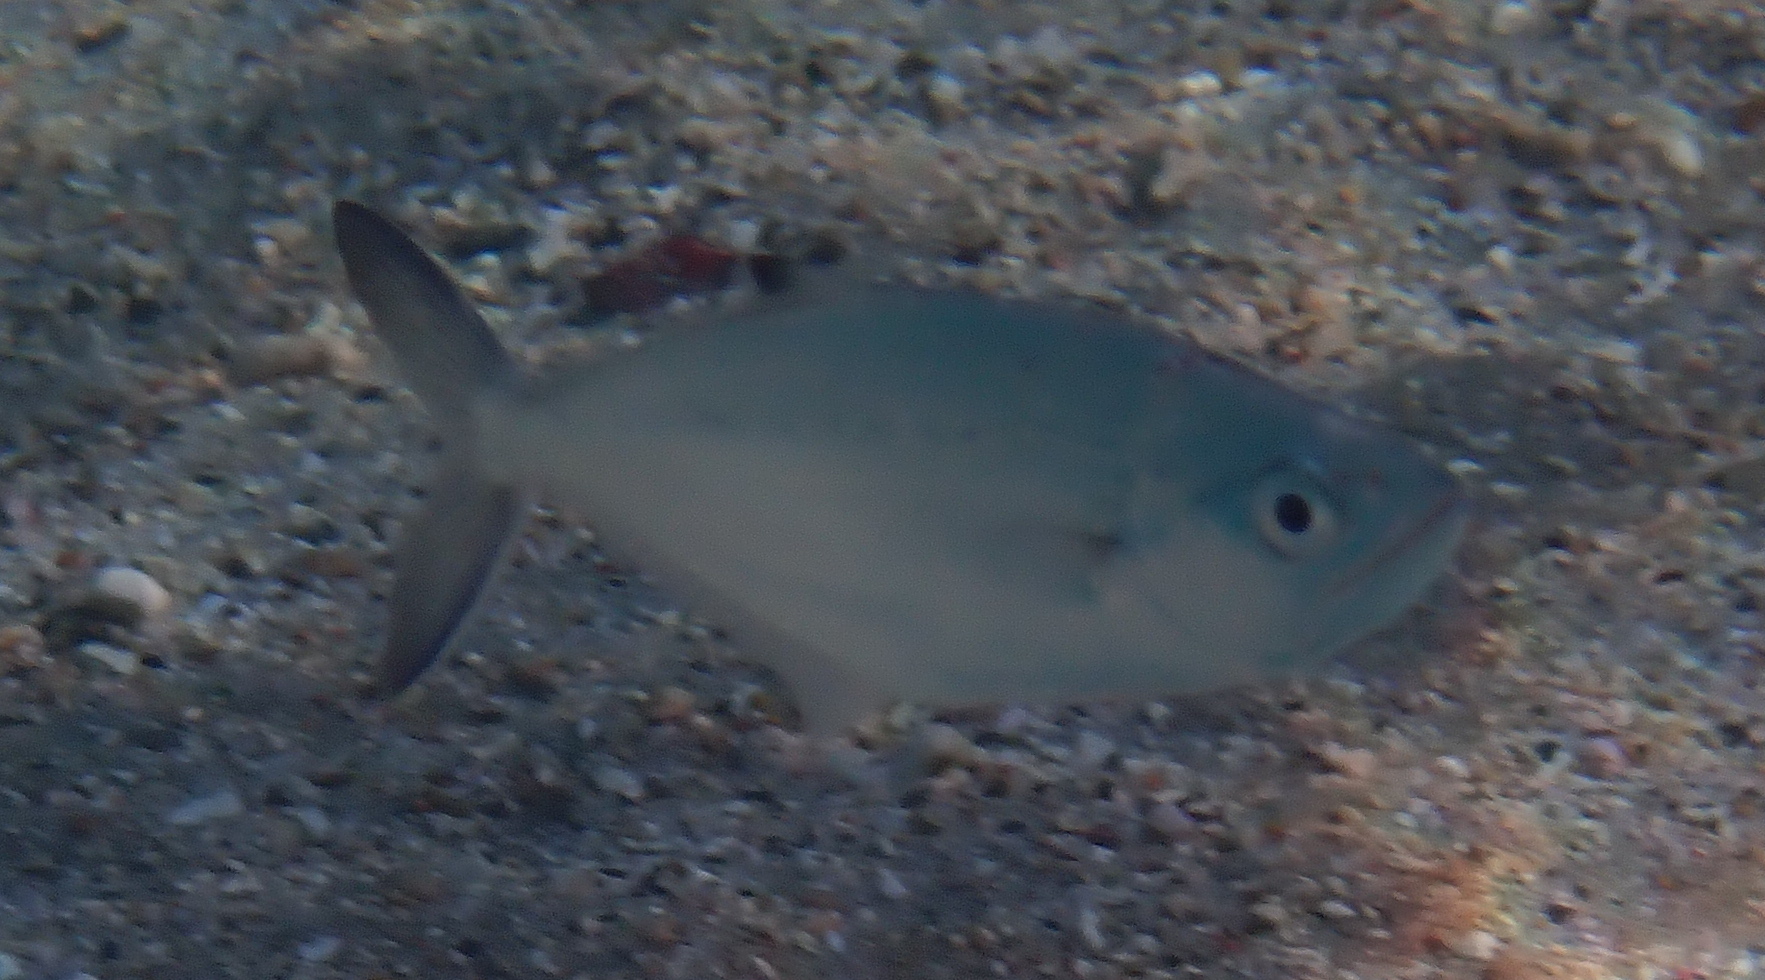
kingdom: Animalia
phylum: Chordata
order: Perciformes
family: Carangidae
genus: Scomberoides
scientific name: Scomberoides lysan
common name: Doublespotted queenfish
